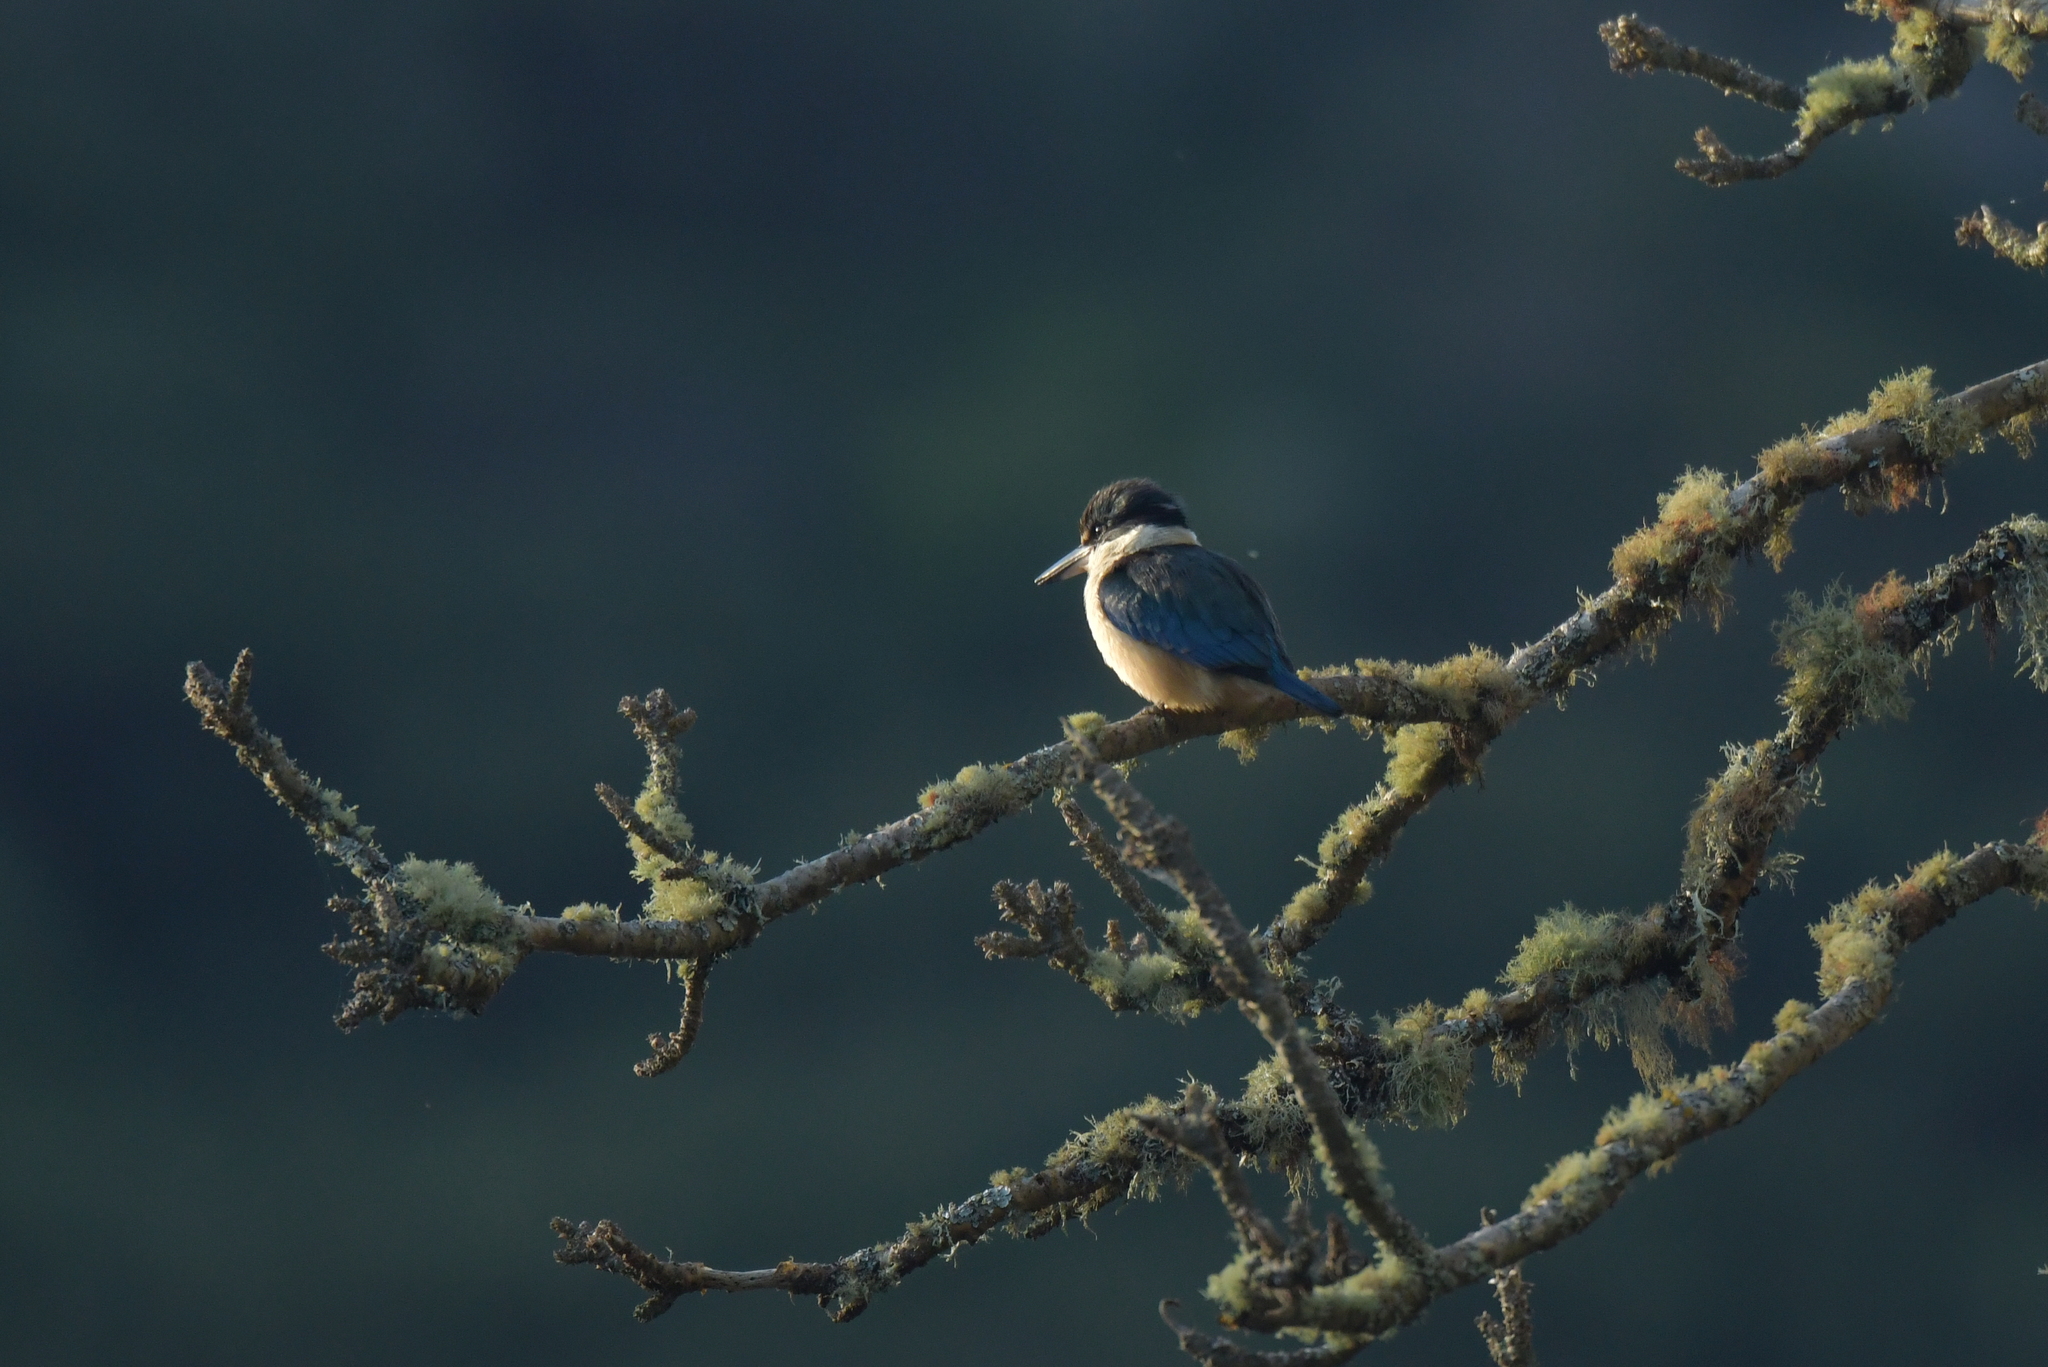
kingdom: Animalia
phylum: Chordata
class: Aves
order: Coraciiformes
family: Alcedinidae
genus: Todiramphus
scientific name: Todiramphus sanctus
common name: Sacred kingfisher
